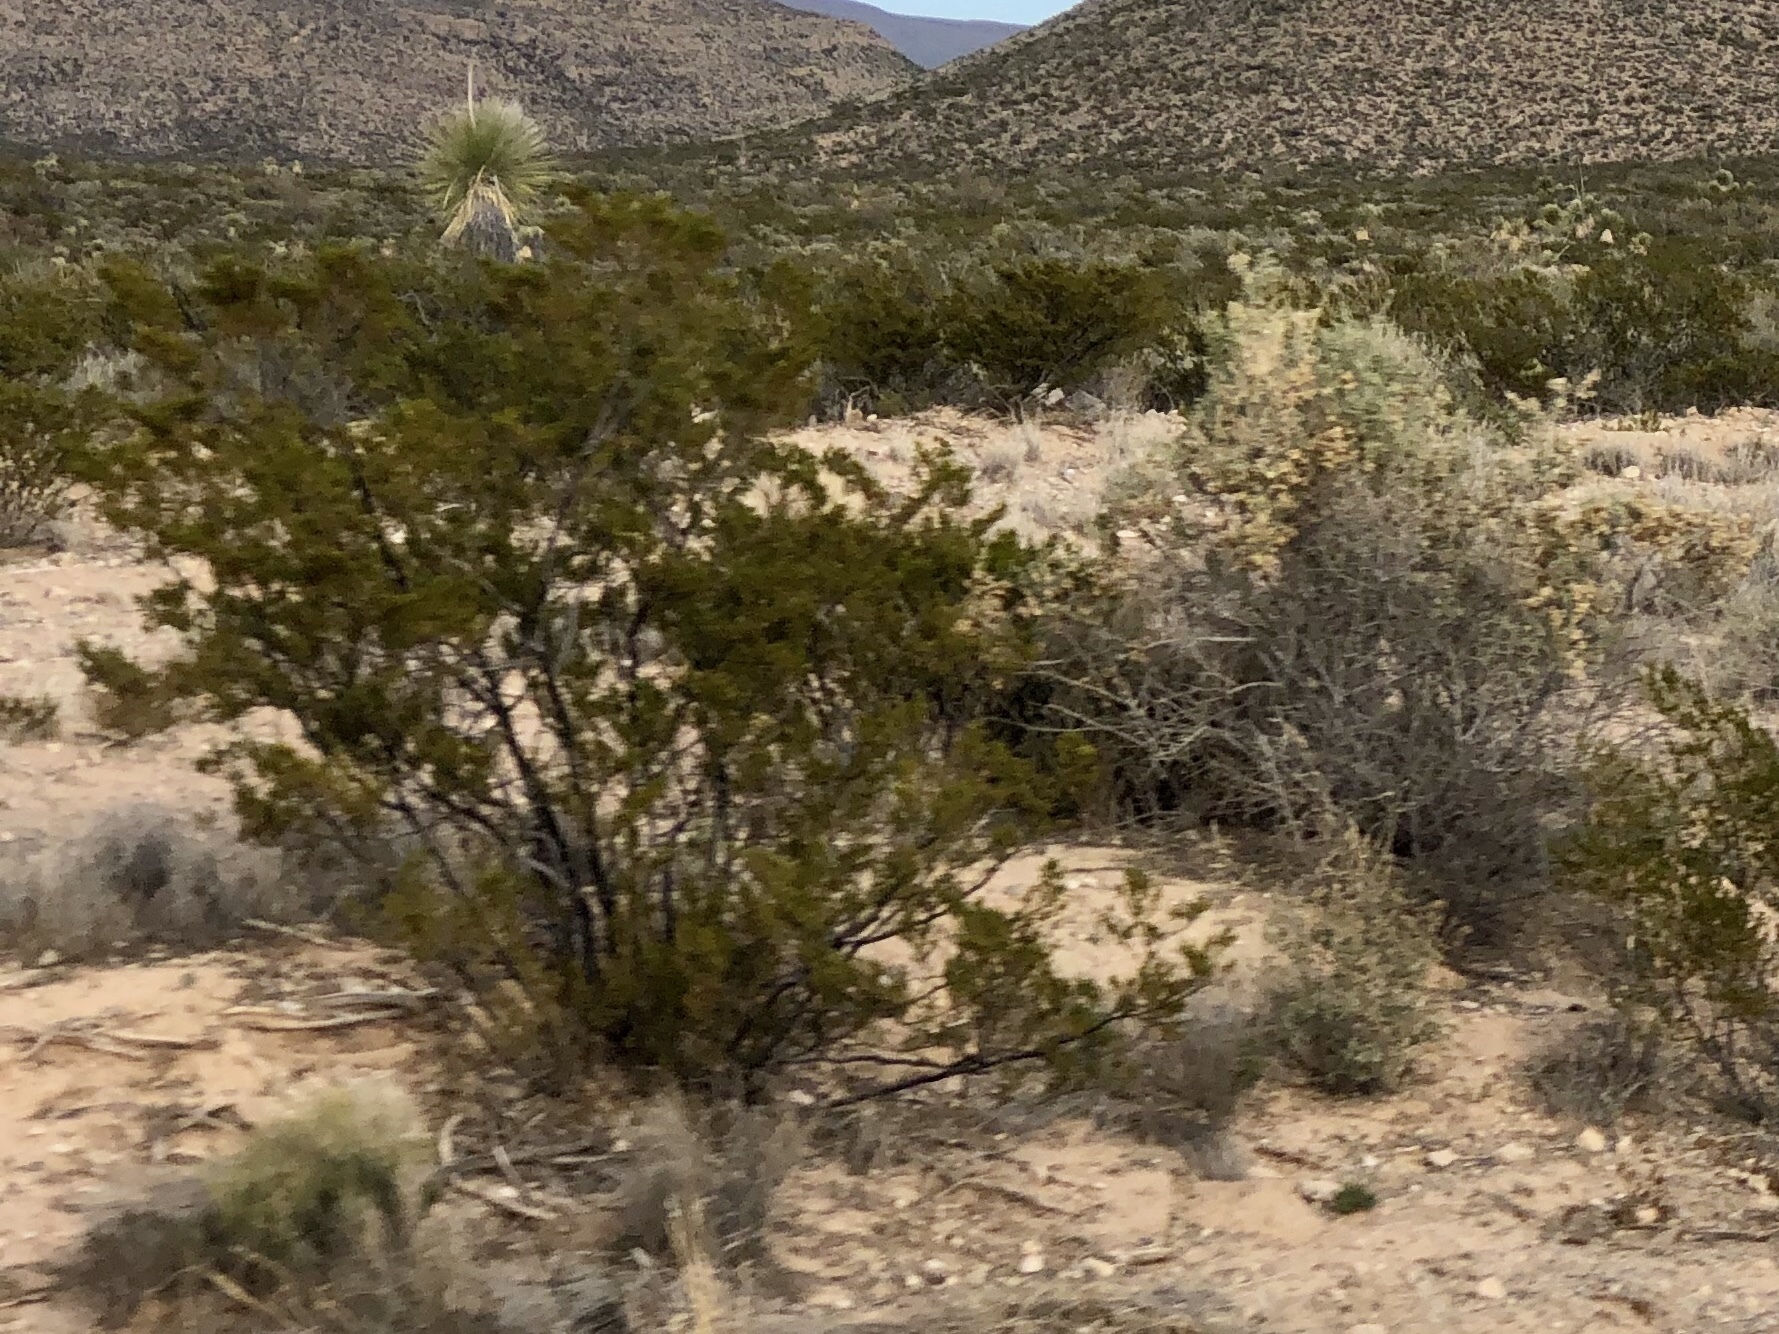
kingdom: Plantae
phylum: Tracheophyta
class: Magnoliopsida
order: Zygophyllales
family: Zygophyllaceae
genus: Larrea
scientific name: Larrea tridentata
